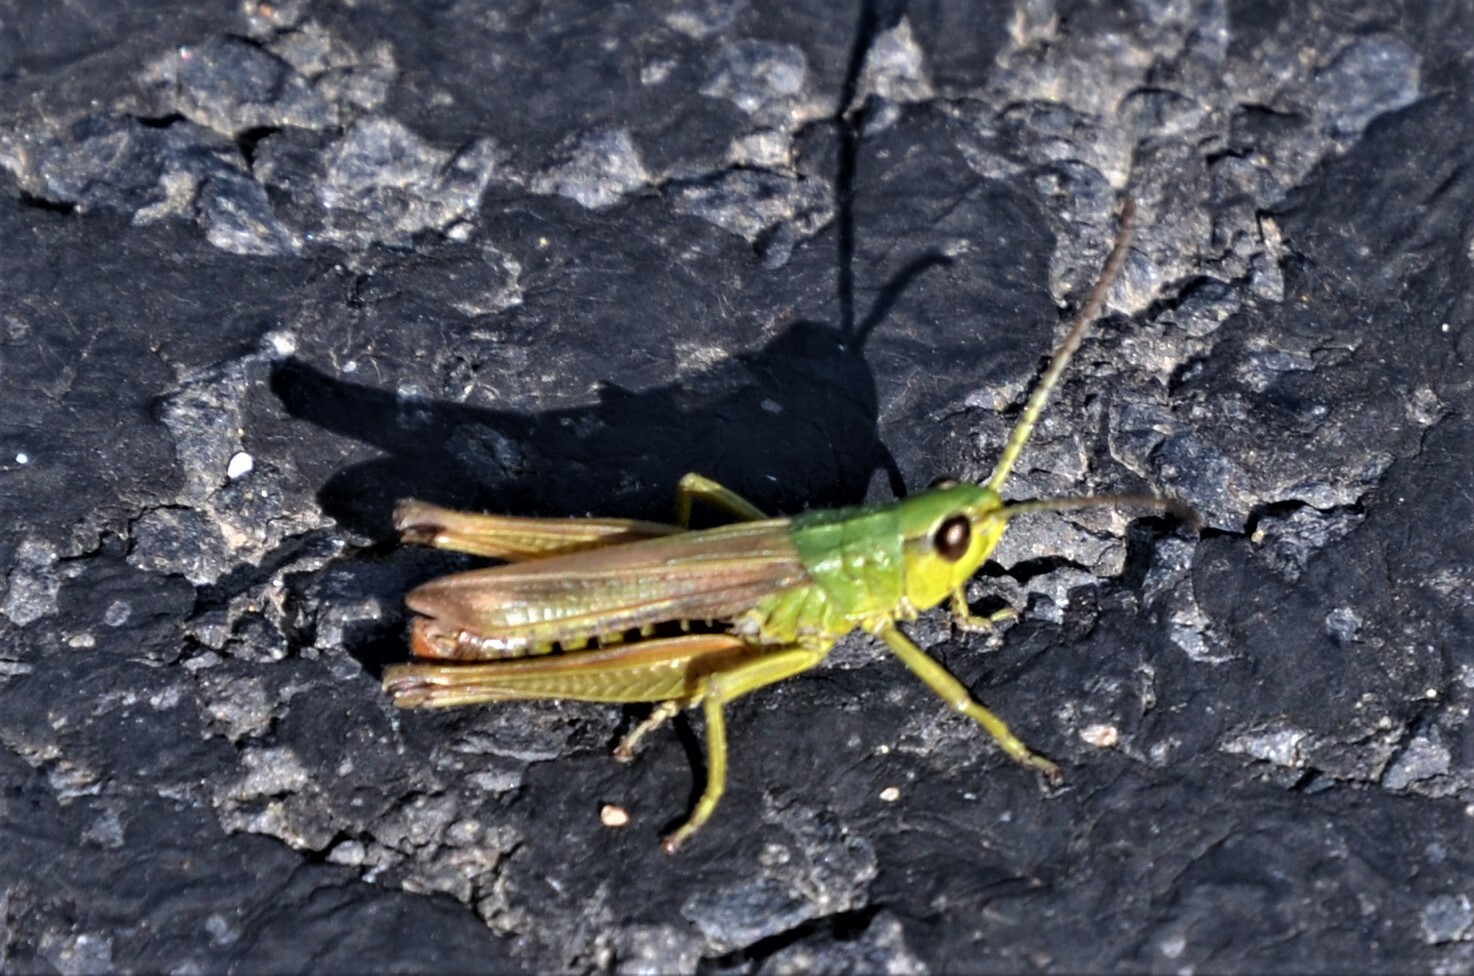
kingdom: Animalia
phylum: Arthropoda
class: Insecta
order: Orthoptera
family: Acrididae
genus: Pseudochorthippus
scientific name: Pseudochorthippus parallelus
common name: Meadow grasshopper
